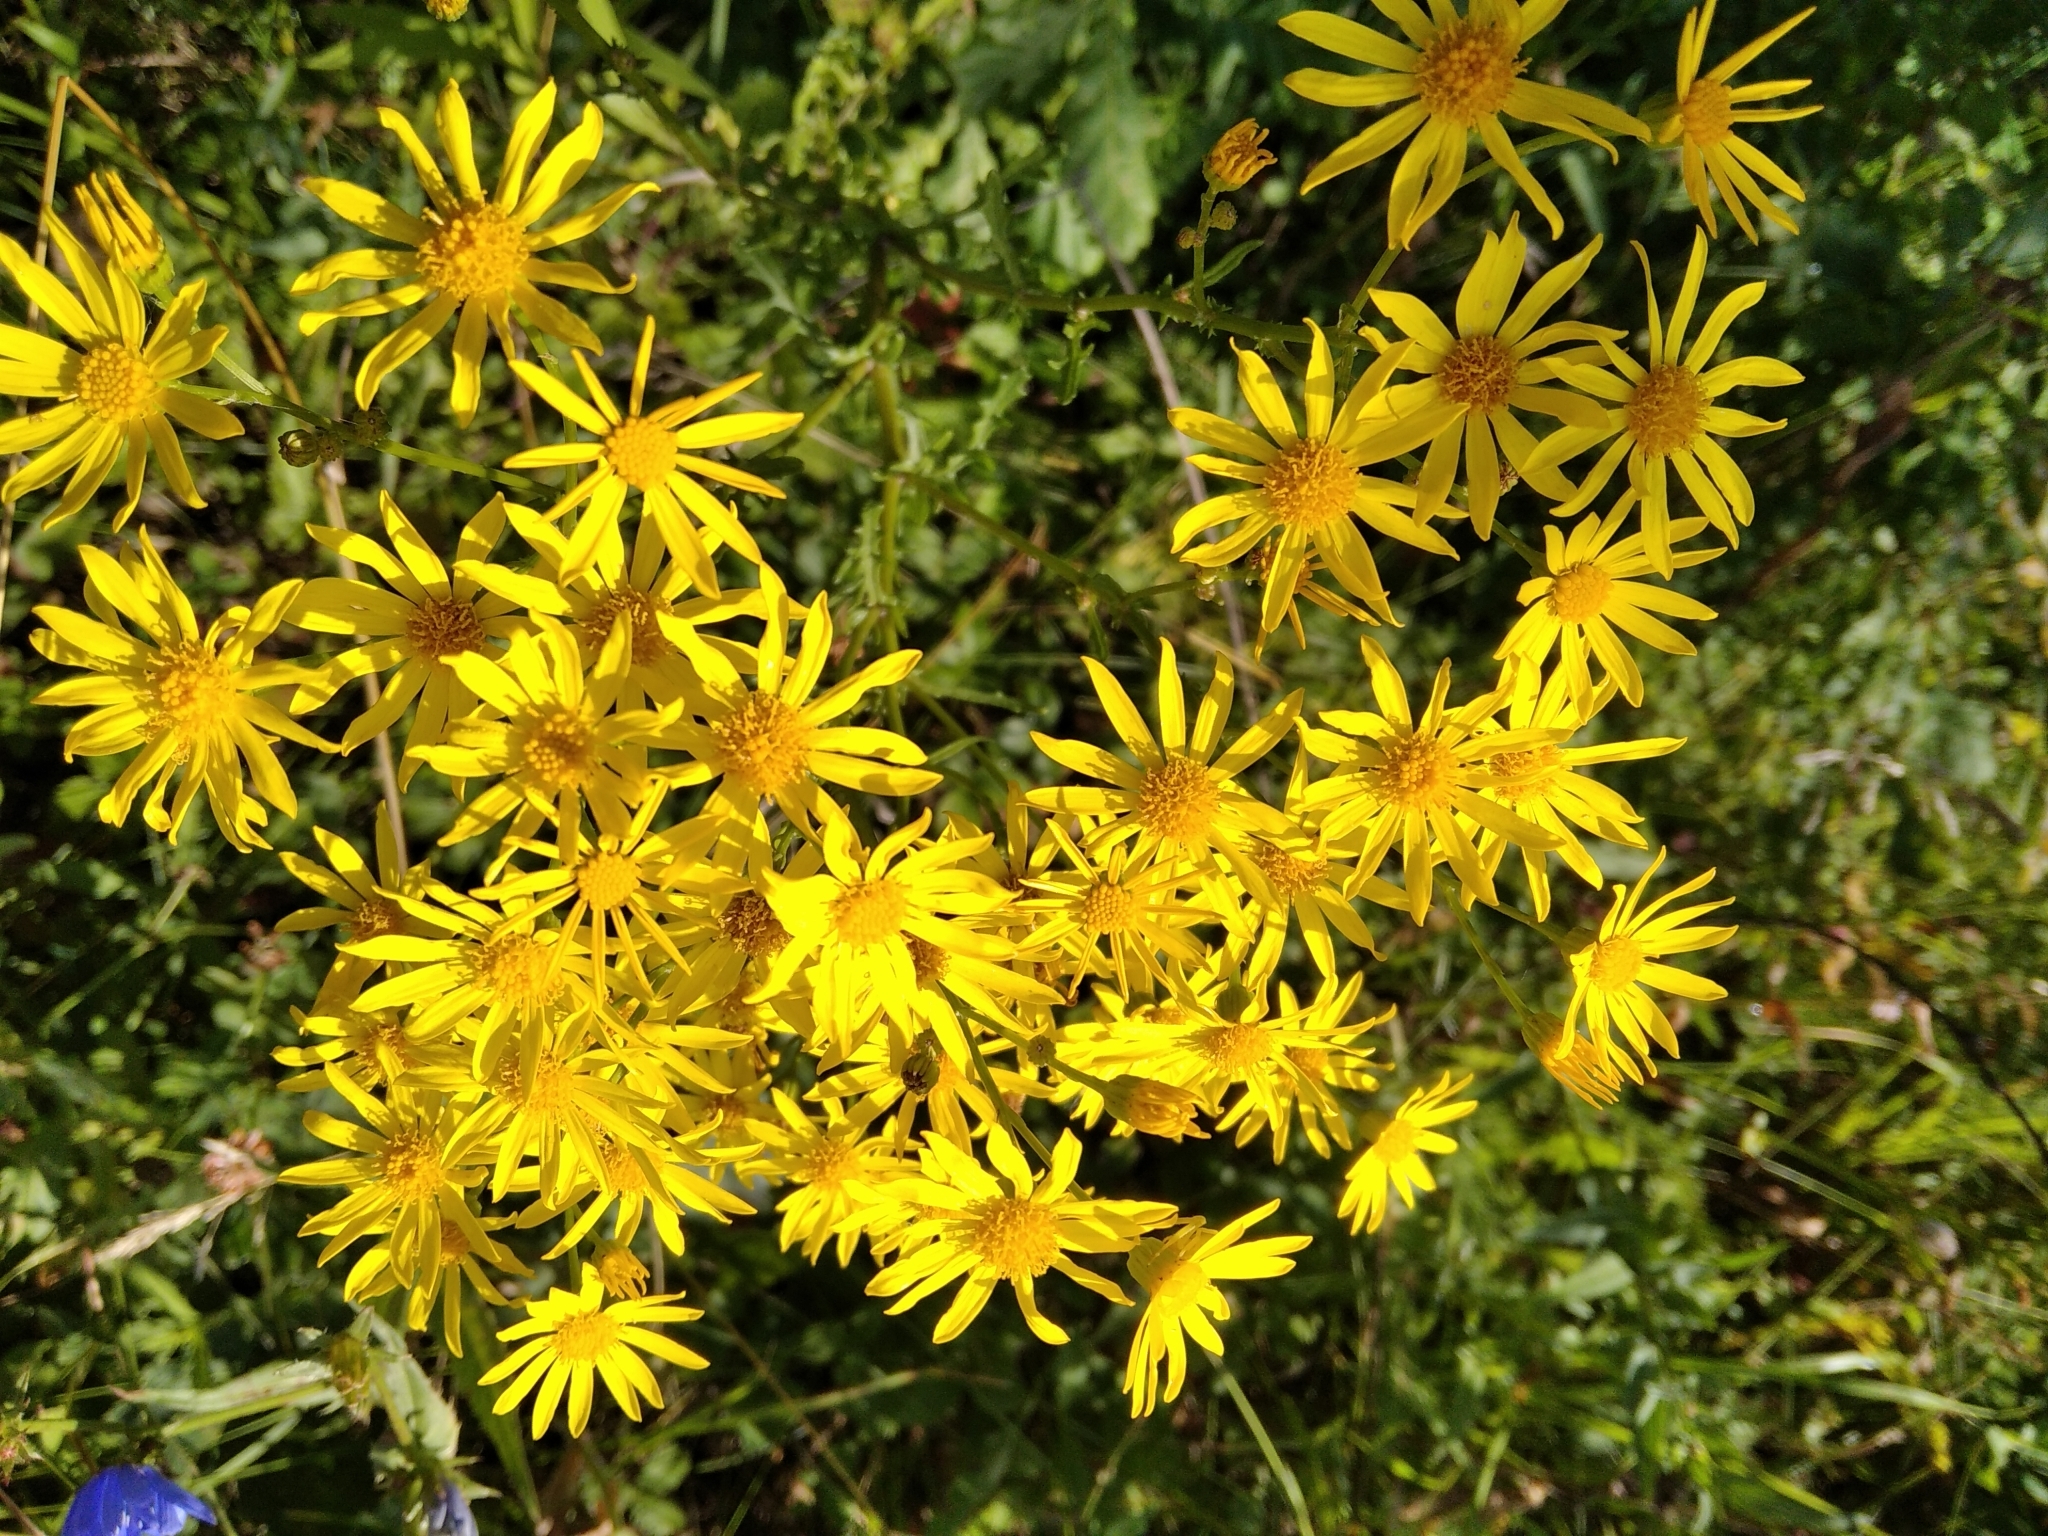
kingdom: Plantae
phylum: Tracheophyta
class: Magnoliopsida
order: Asterales
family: Asteraceae
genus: Jacobaea
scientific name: Jacobaea vulgaris
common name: Stinking willie
